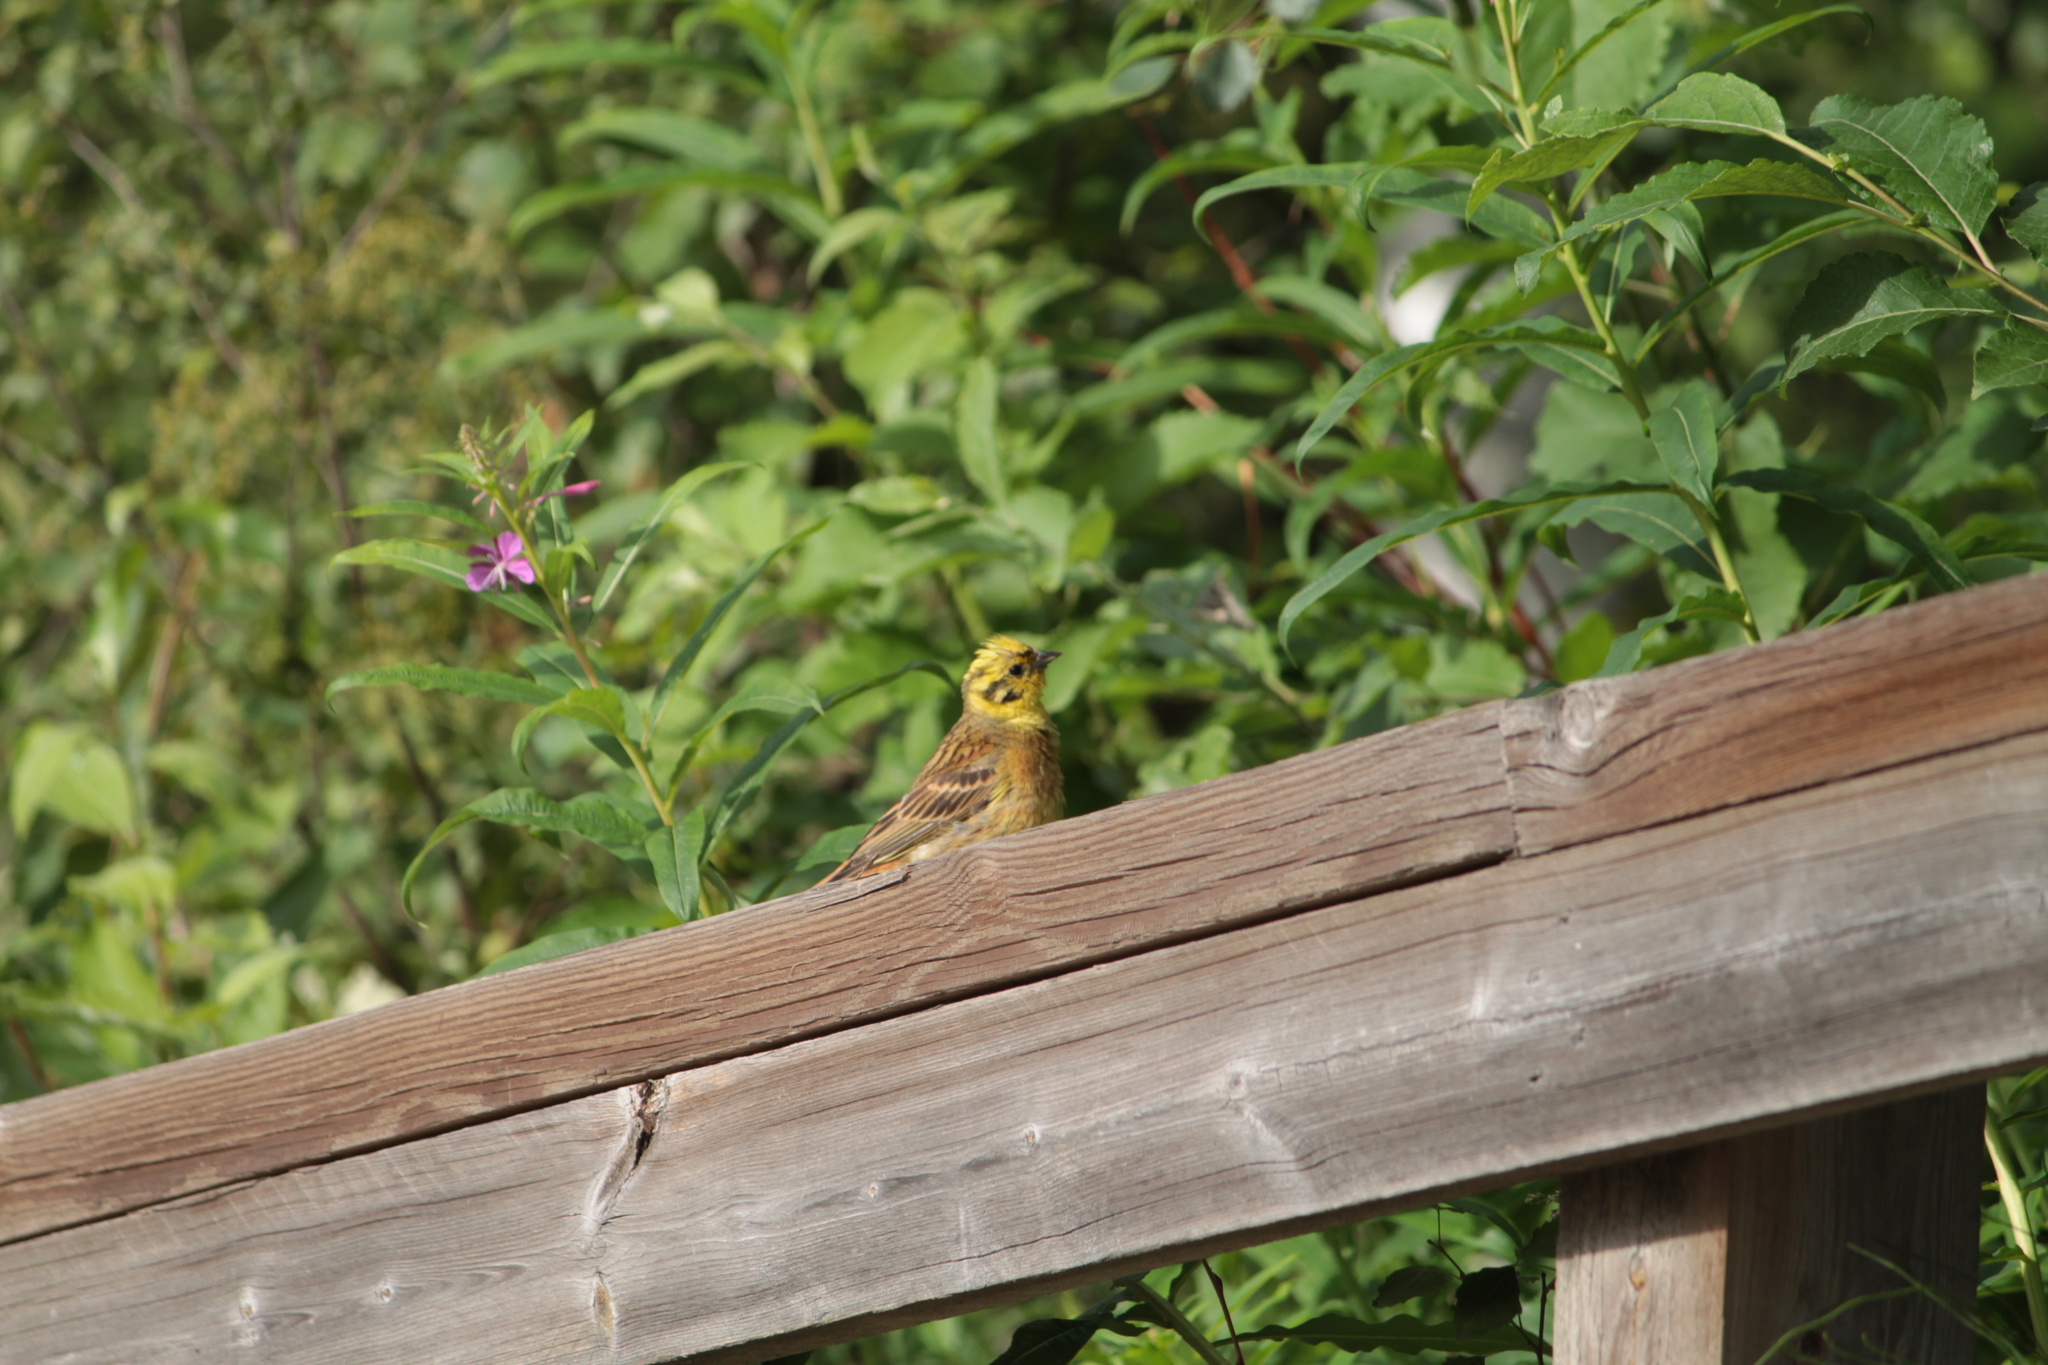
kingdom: Animalia
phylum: Chordata
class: Aves
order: Passeriformes
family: Emberizidae
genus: Emberiza
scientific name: Emberiza citrinella
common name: Yellowhammer
